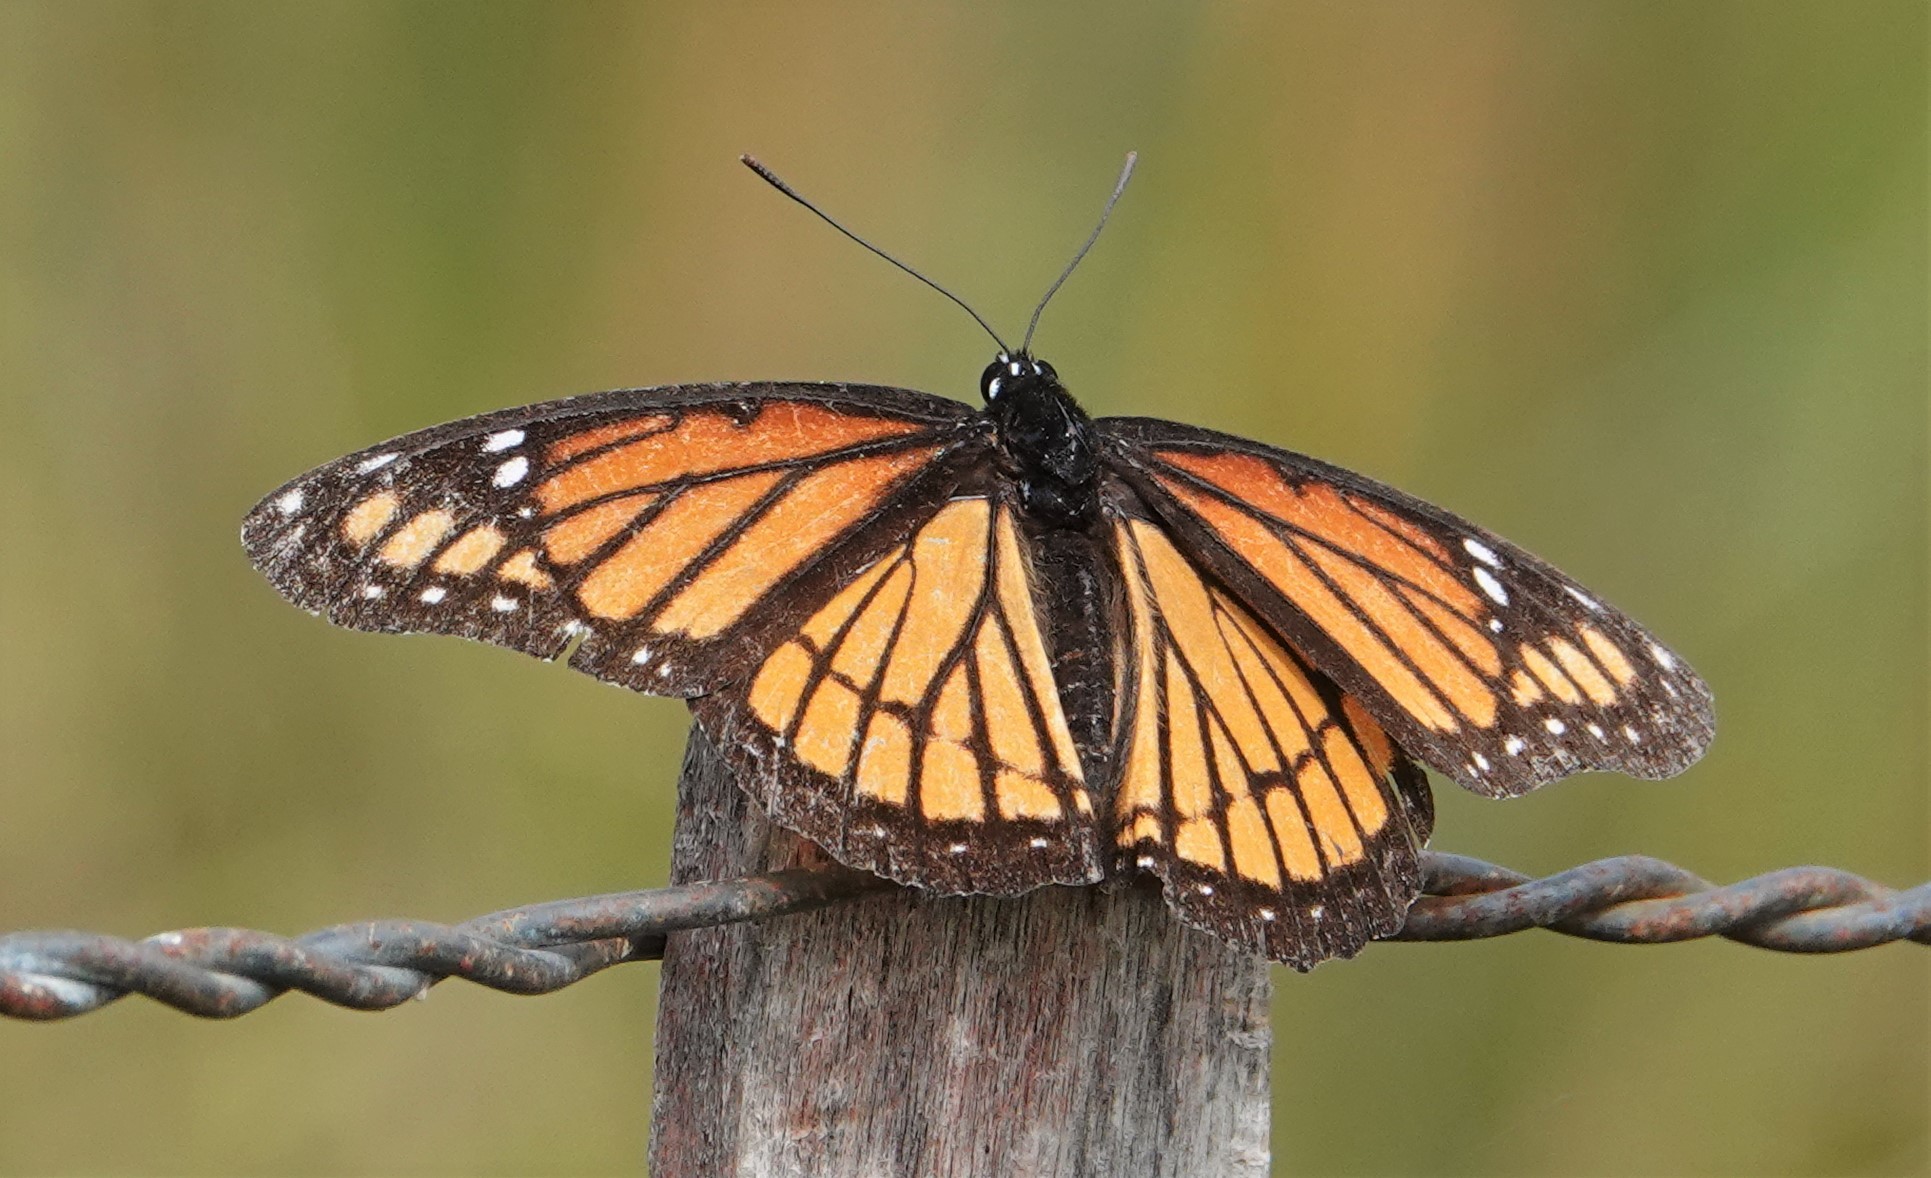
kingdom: Animalia
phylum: Arthropoda
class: Insecta
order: Lepidoptera
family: Nymphalidae
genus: Limenitis
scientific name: Limenitis archippus
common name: Viceroy
